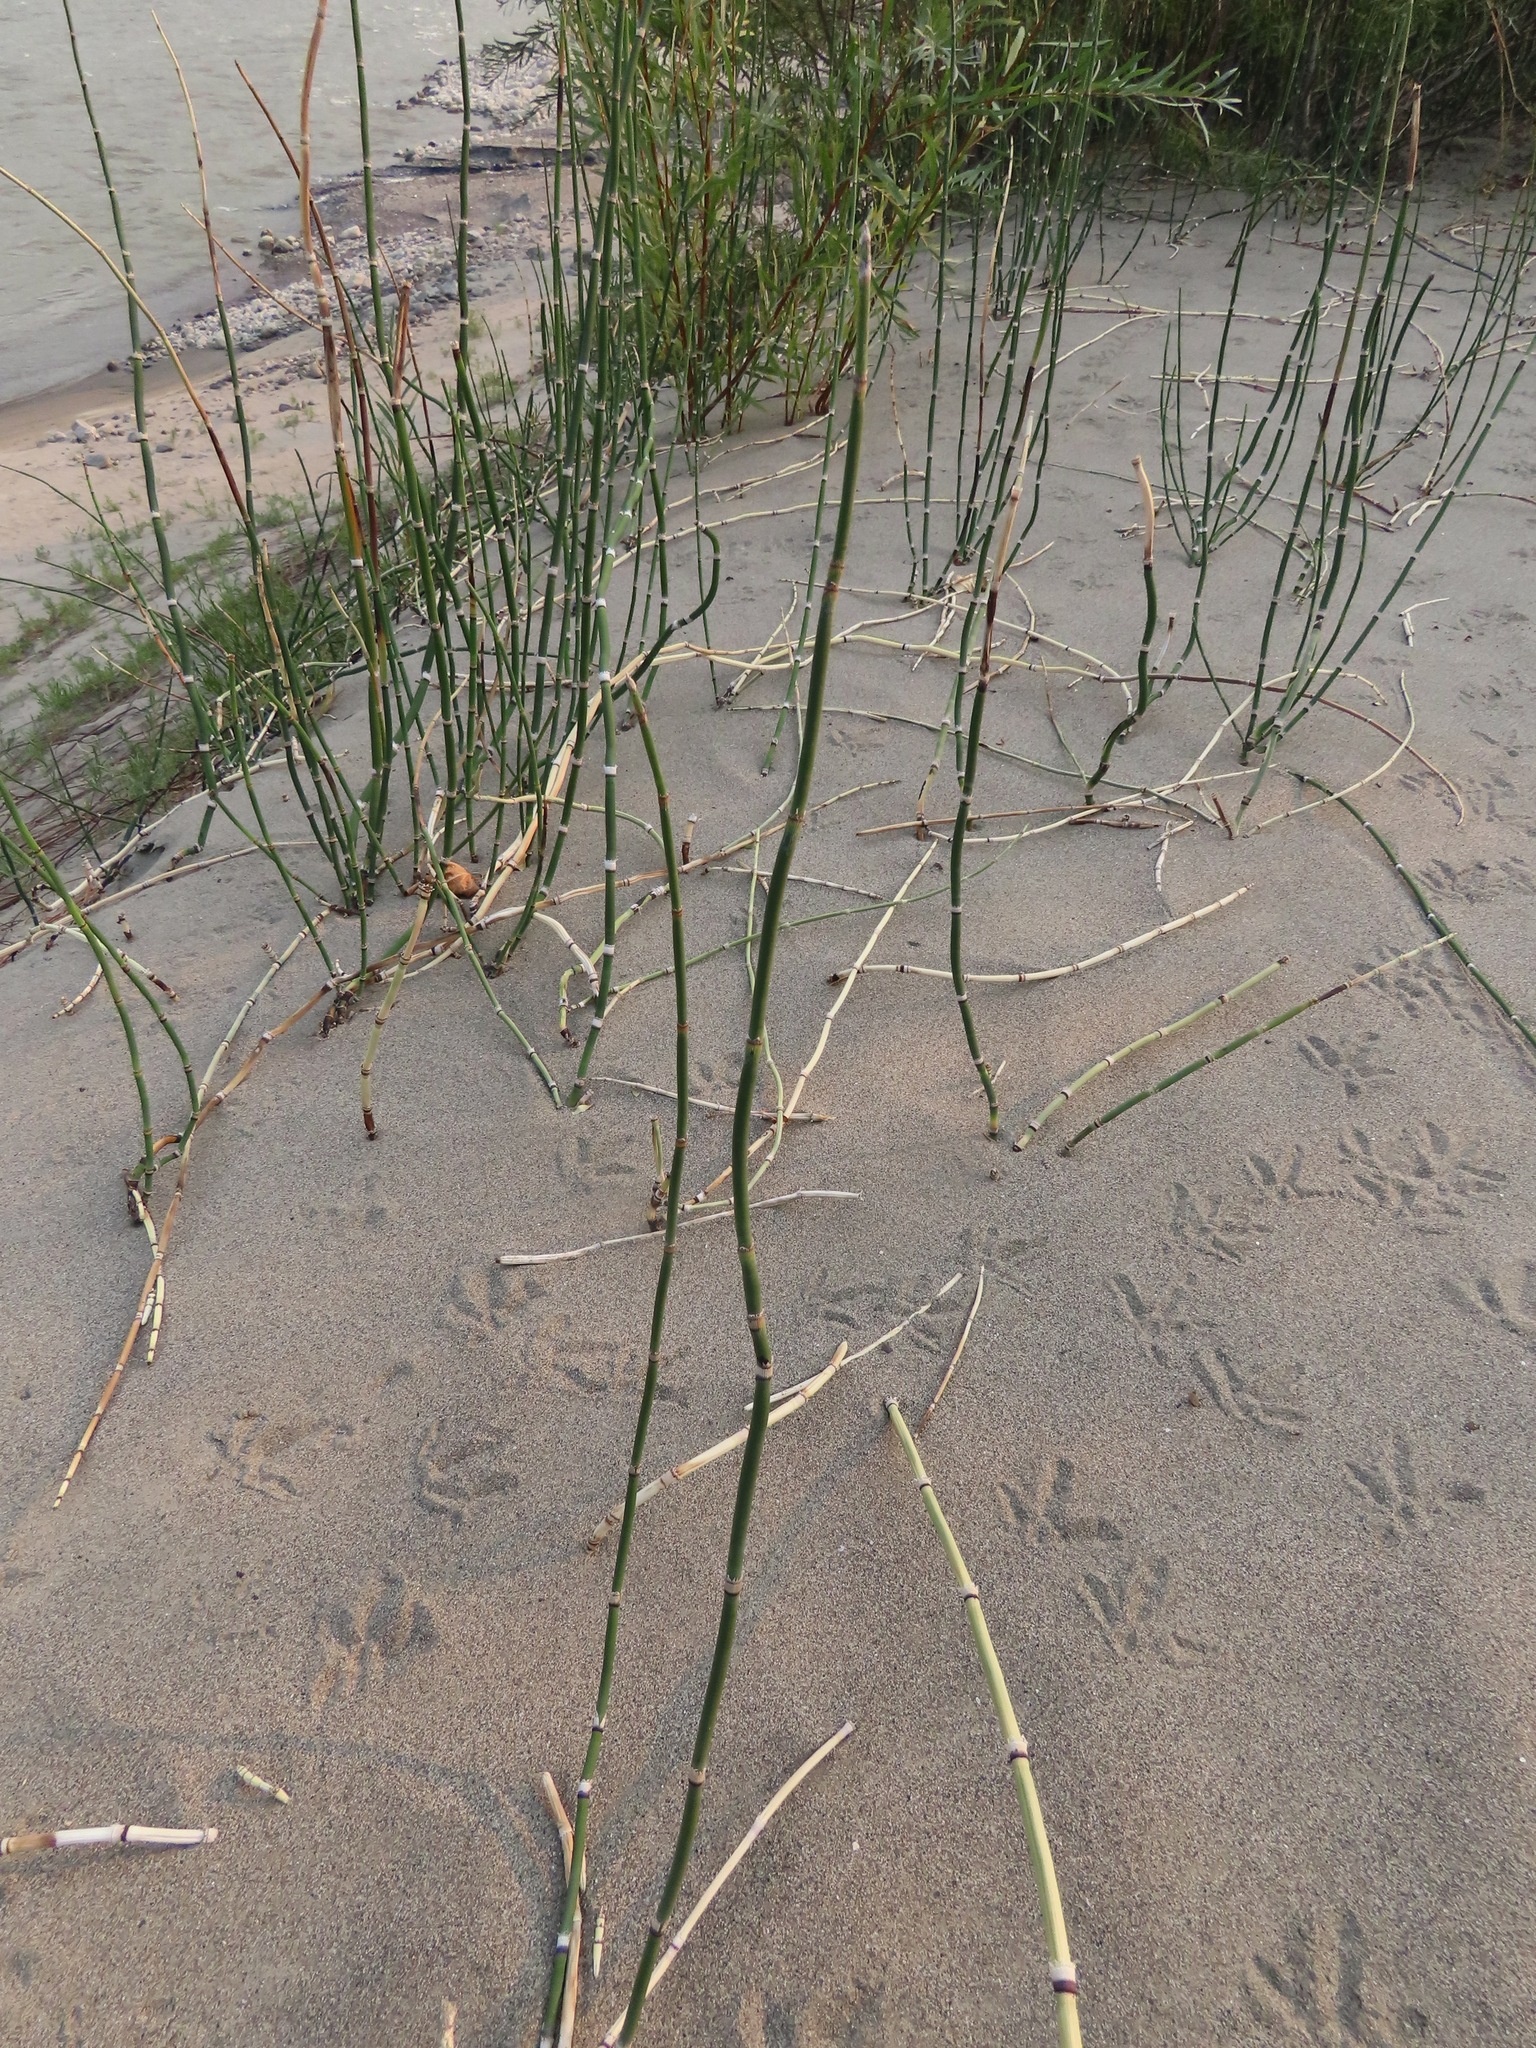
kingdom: Plantae
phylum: Tracheophyta
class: Polypodiopsida
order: Equisetales
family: Equisetaceae
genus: Equisetum
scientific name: Equisetum praealtum
